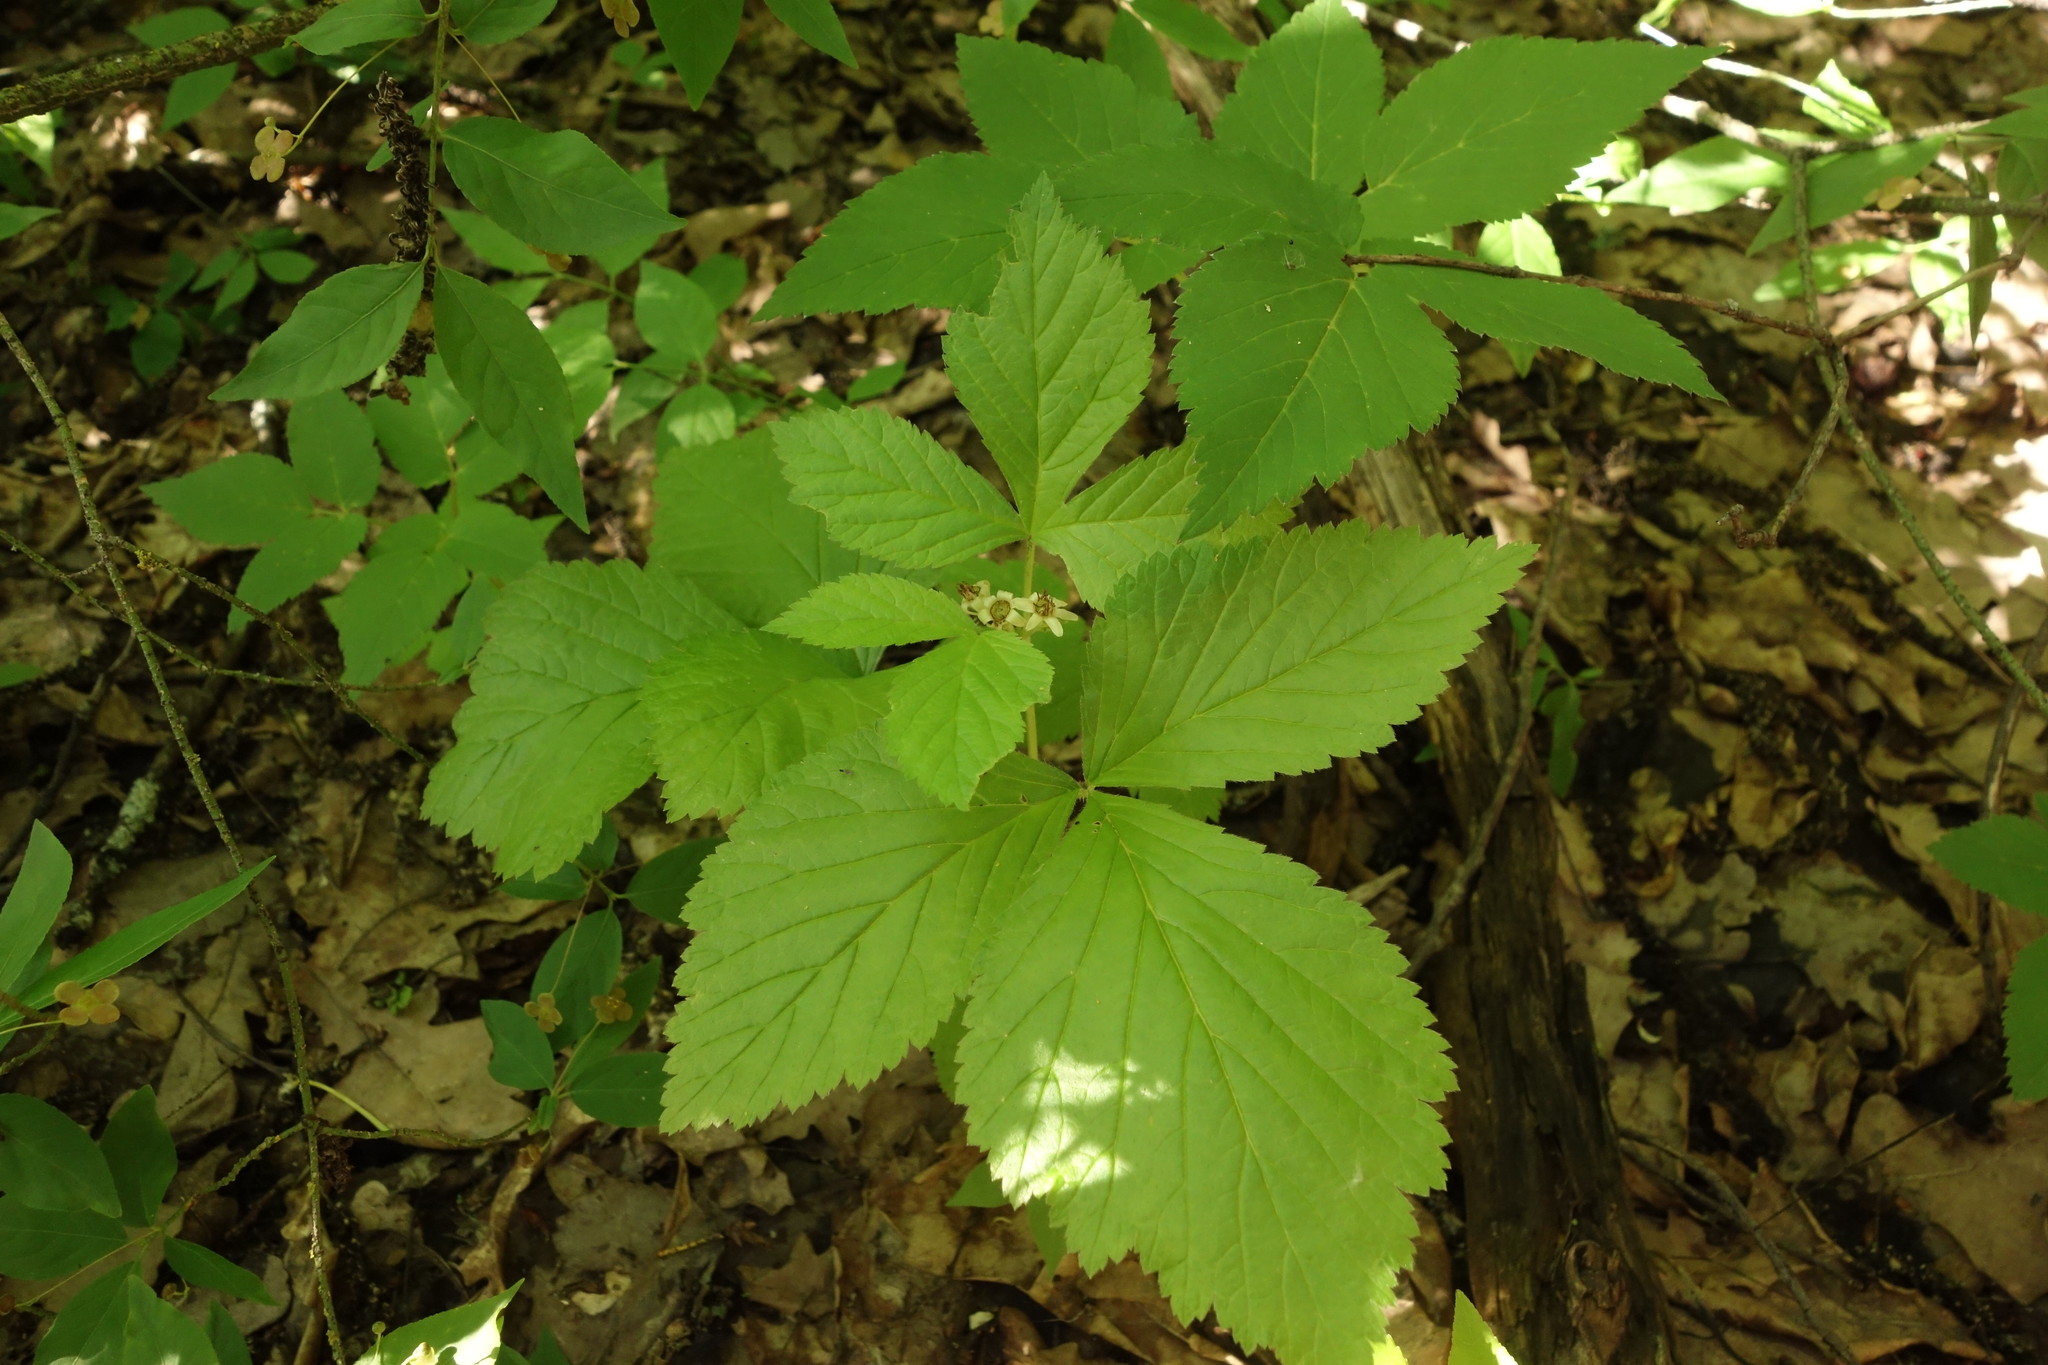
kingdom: Plantae
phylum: Tracheophyta
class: Magnoliopsida
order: Rosales
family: Rosaceae
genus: Rubus
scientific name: Rubus saxatilis
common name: Stone bramble
